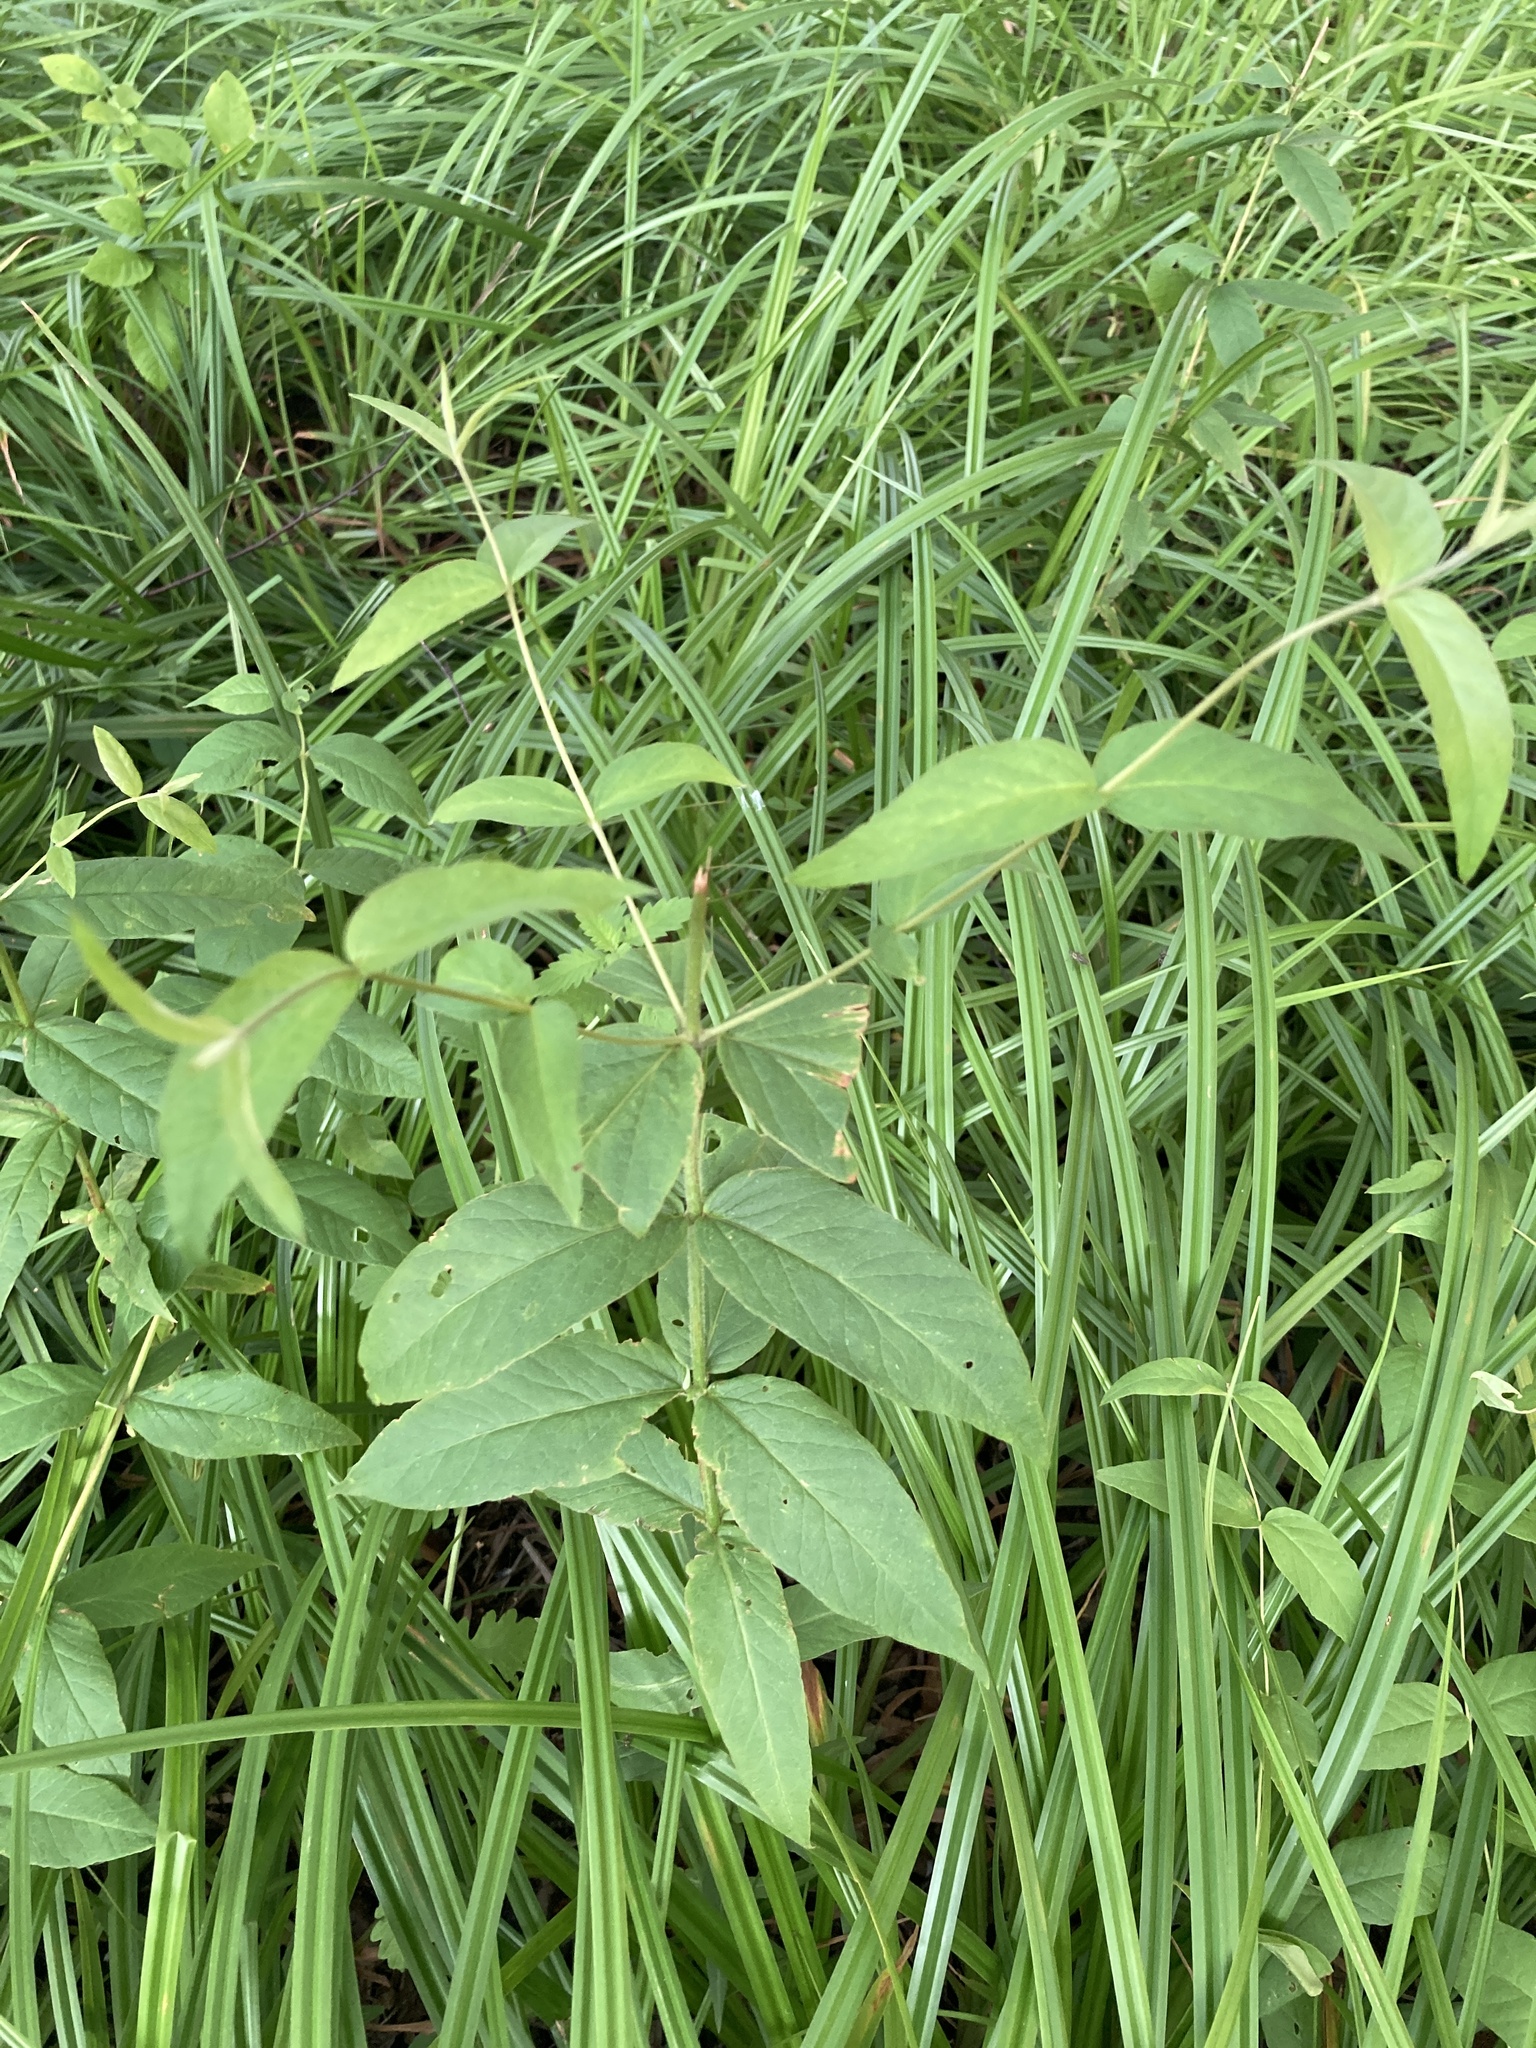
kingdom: Plantae
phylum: Tracheophyta
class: Magnoliopsida
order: Ericales
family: Primulaceae
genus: Lysimachia
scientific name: Lysimachia vulgaris
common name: Yellow loosestrife
